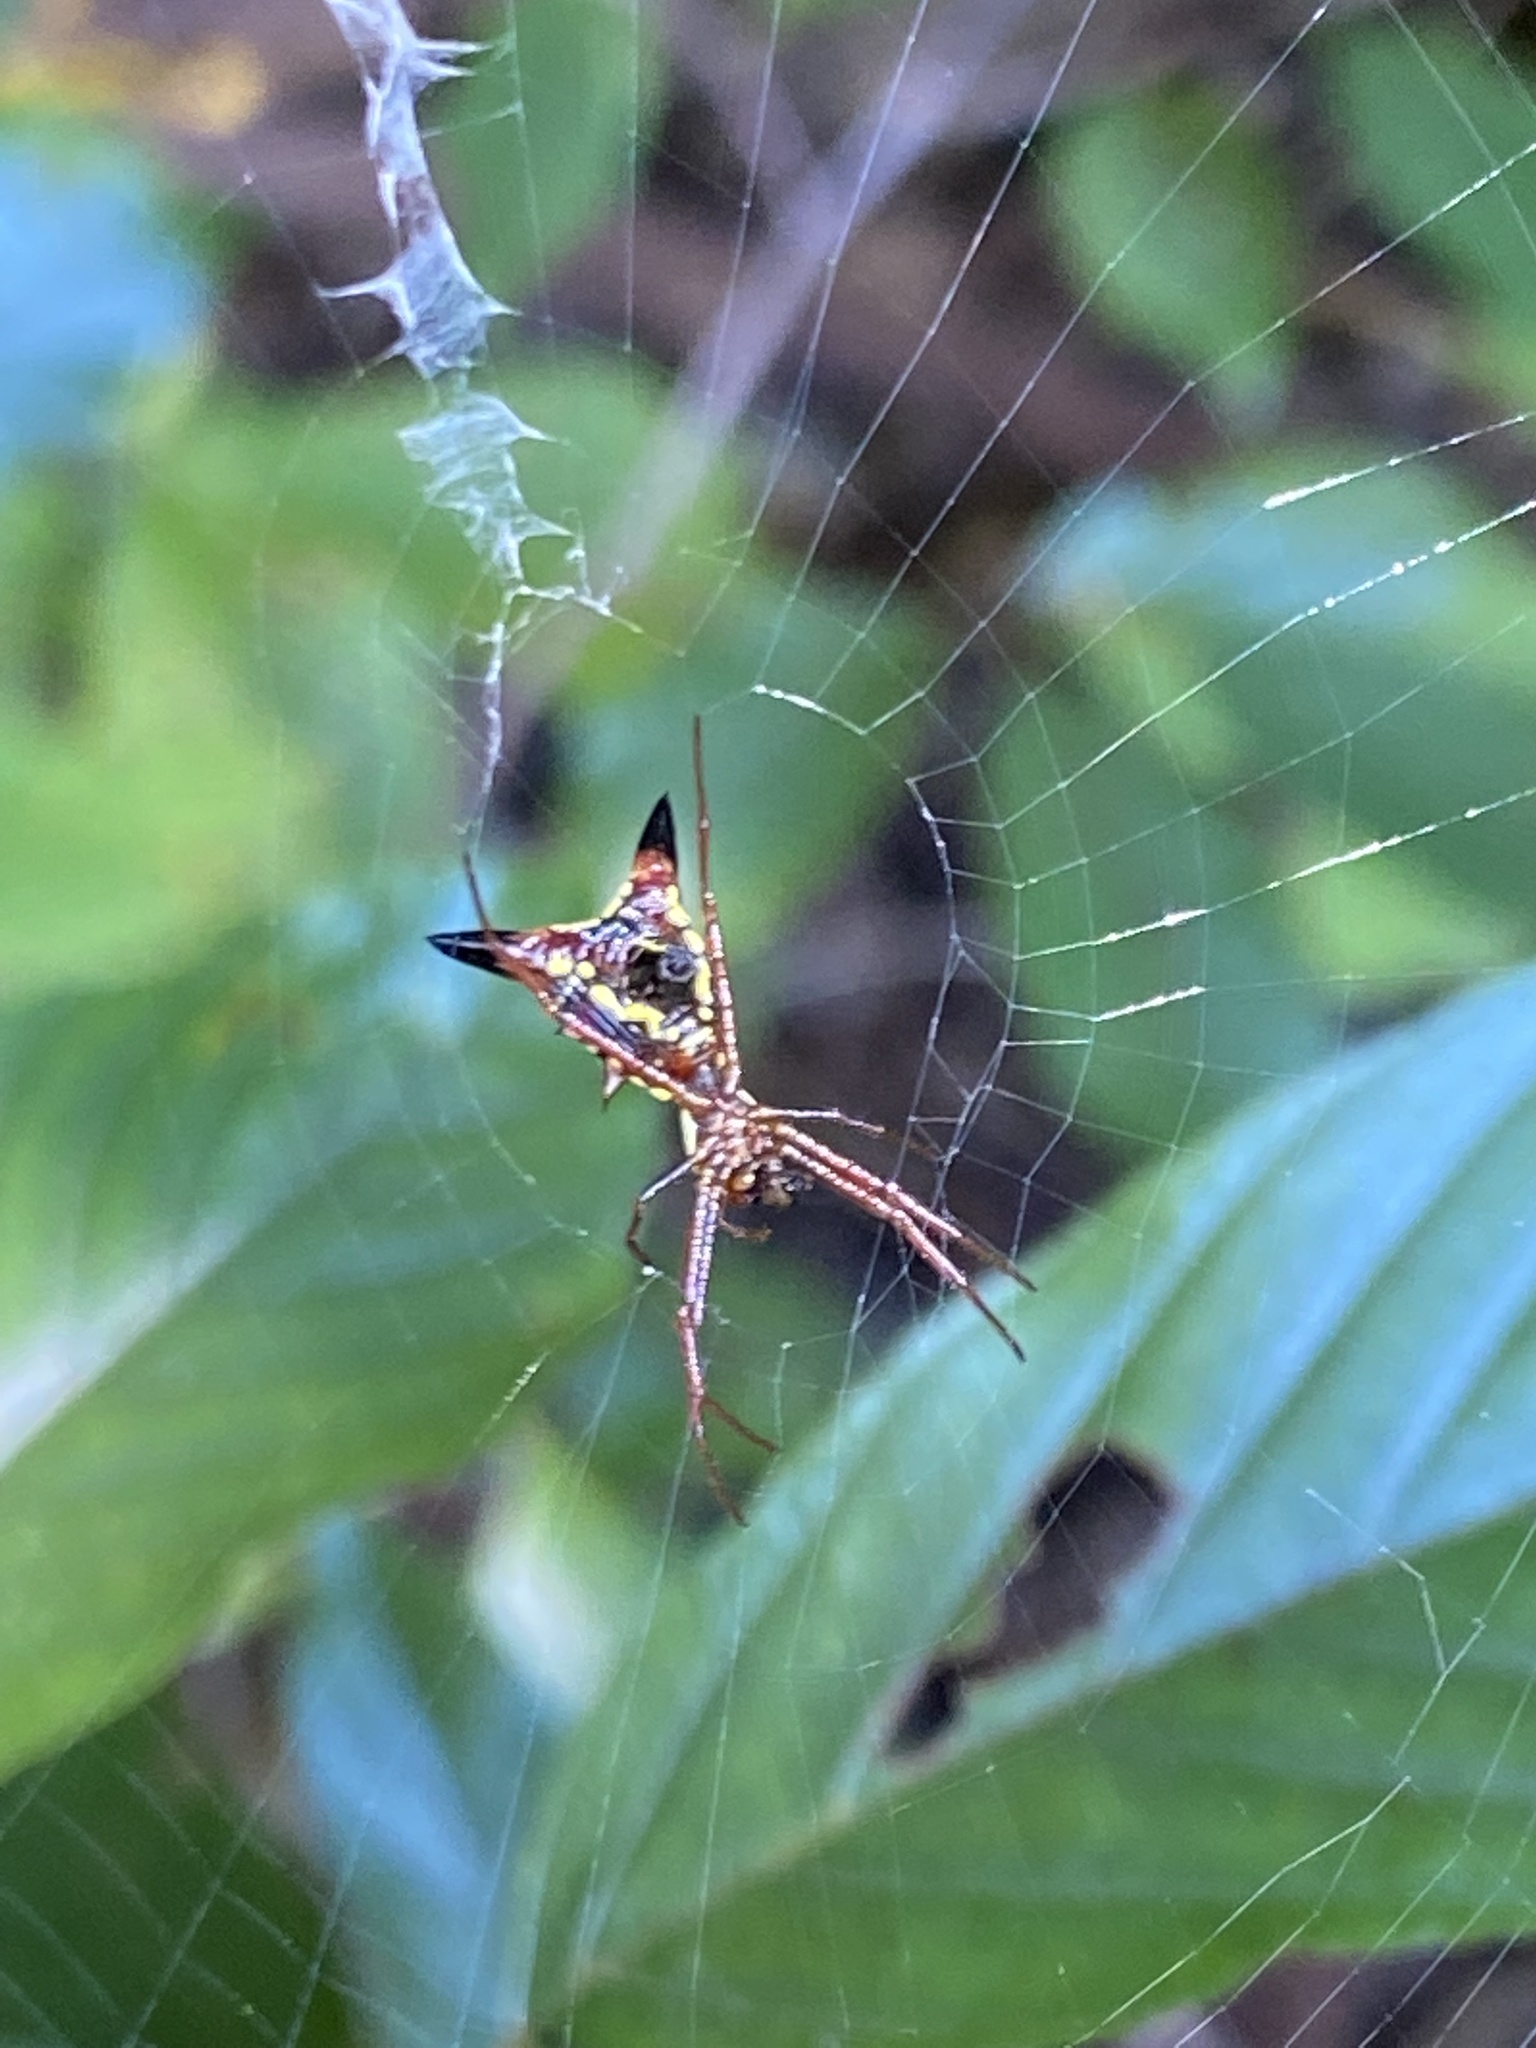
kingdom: Animalia
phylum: Arthropoda
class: Arachnida
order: Araneae
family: Araneidae
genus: Micrathena
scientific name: Micrathena sagittata
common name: Orb weavers
